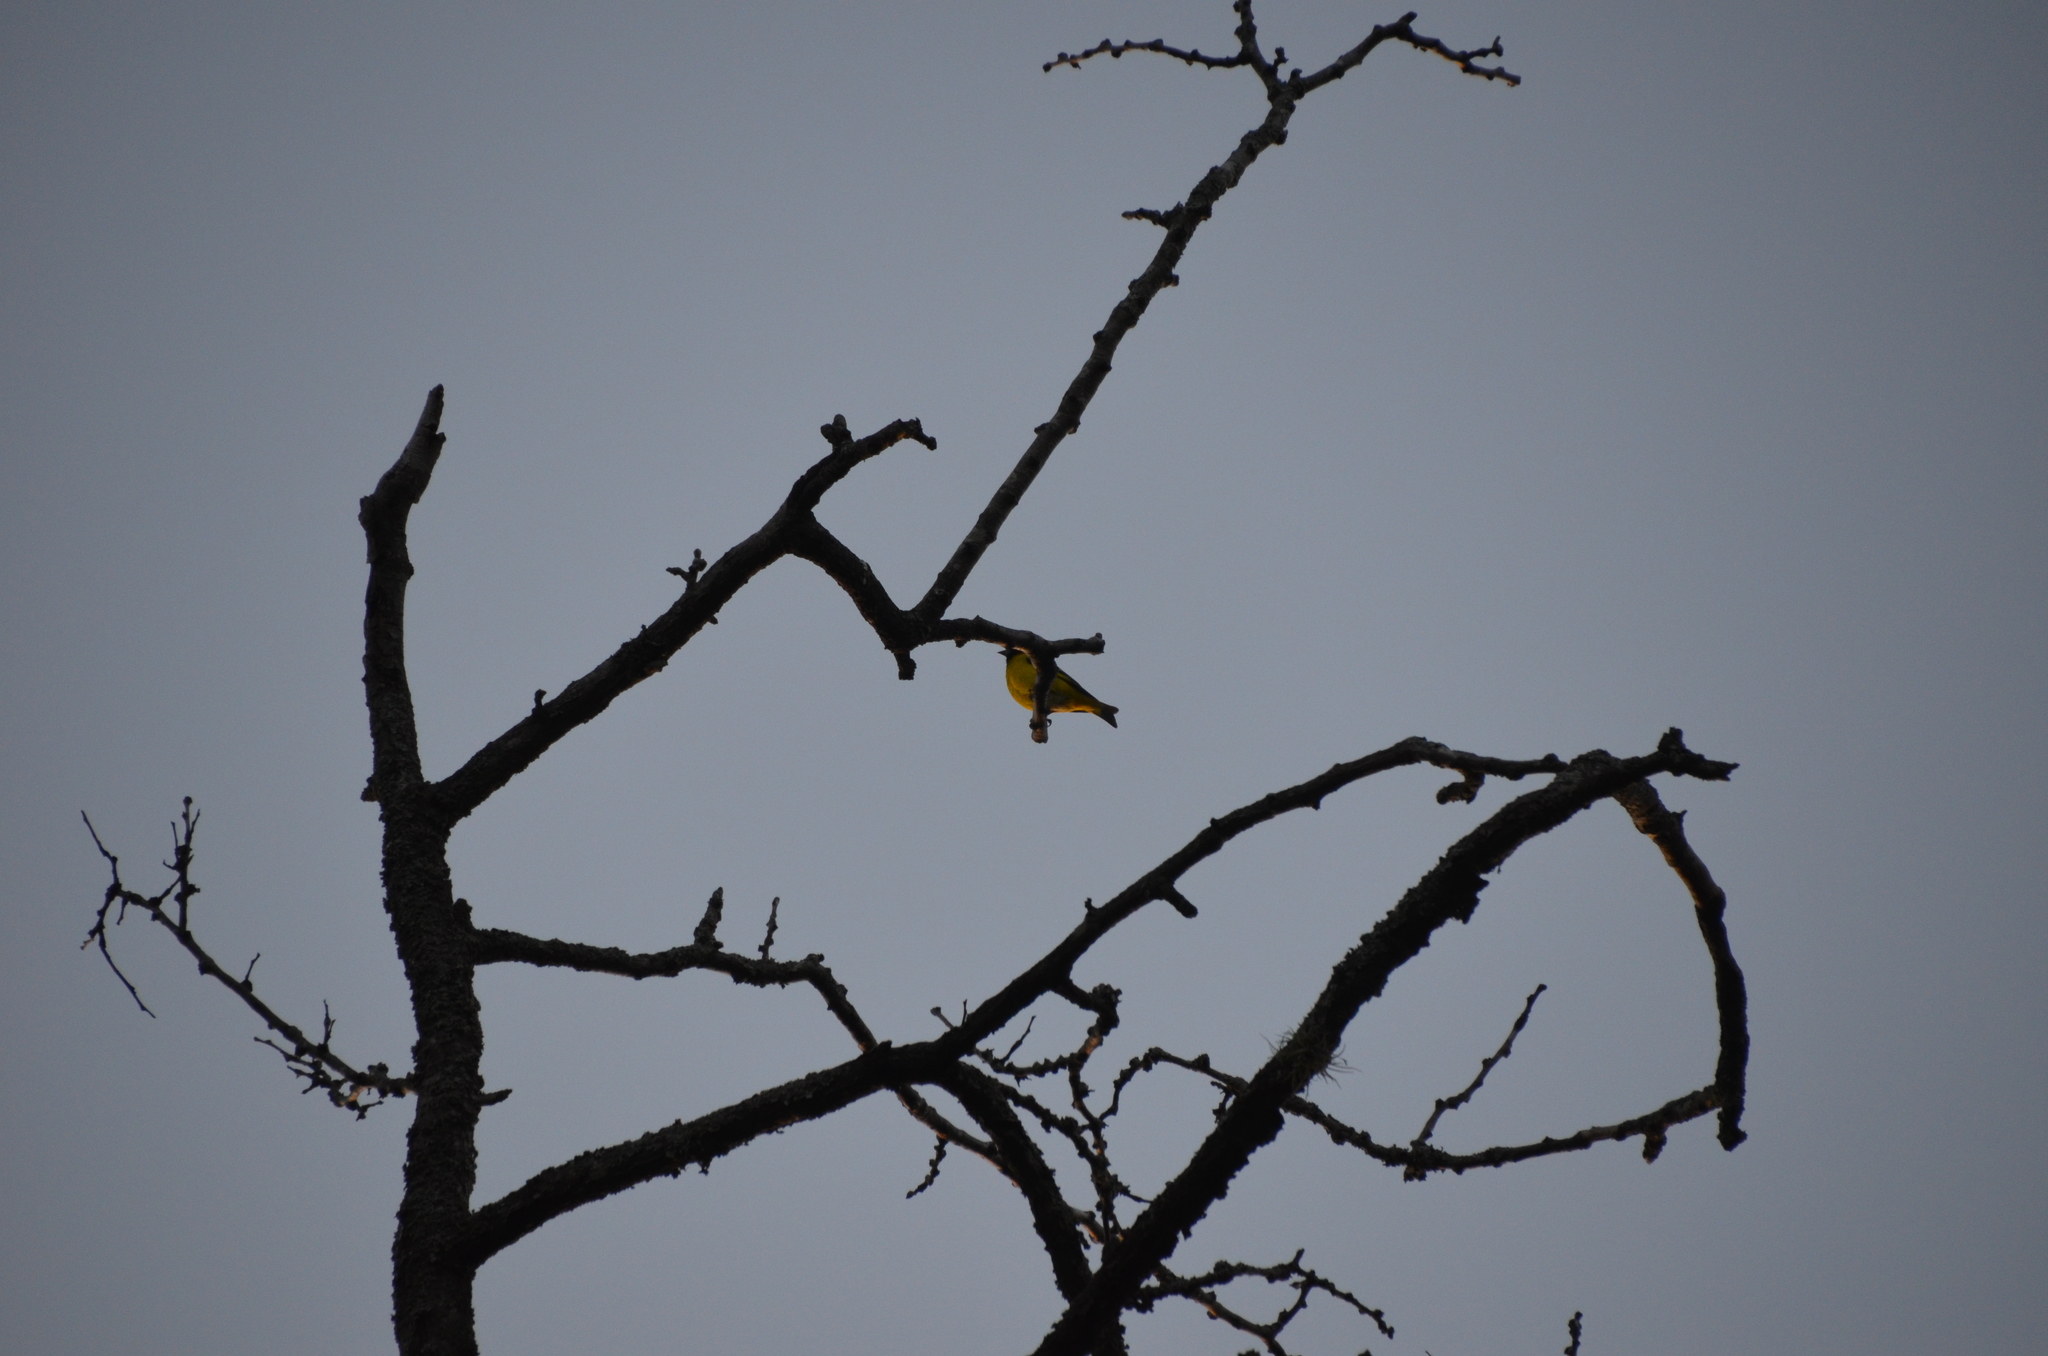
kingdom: Animalia
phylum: Chordata
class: Aves
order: Passeriformes
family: Fringillidae
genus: Spinus
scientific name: Spinus magellanicus
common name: Hooded siskin
